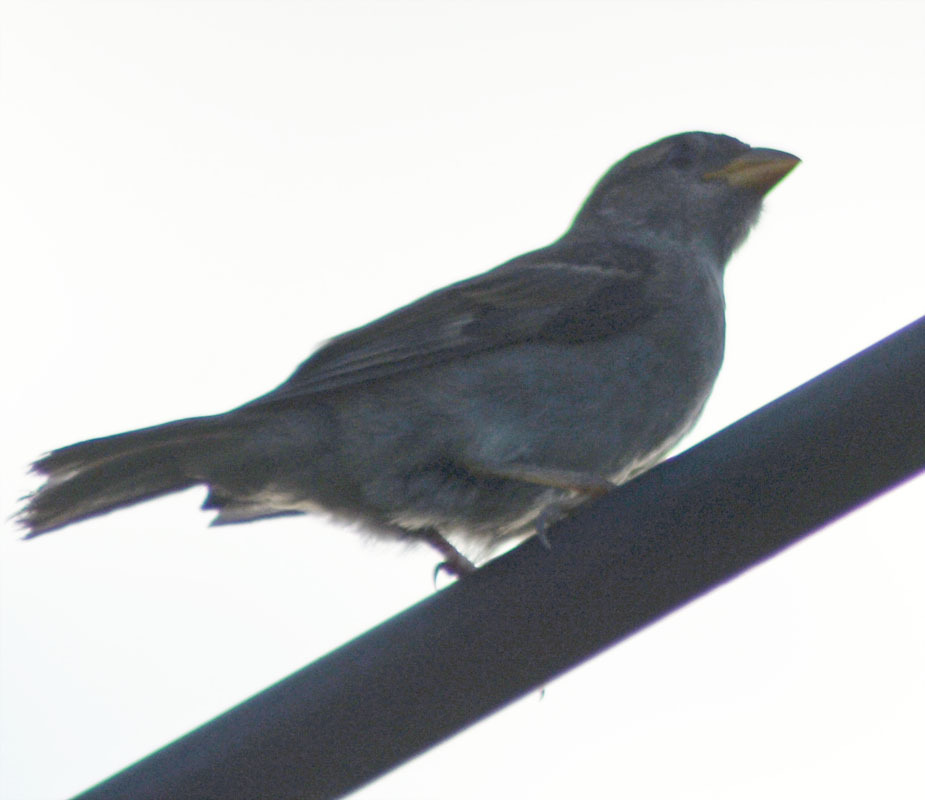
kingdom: Animalia
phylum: Chordata
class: Aves
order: Passeriformes
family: Passeridae
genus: Passer
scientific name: Passer domesticus
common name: House sparrow
